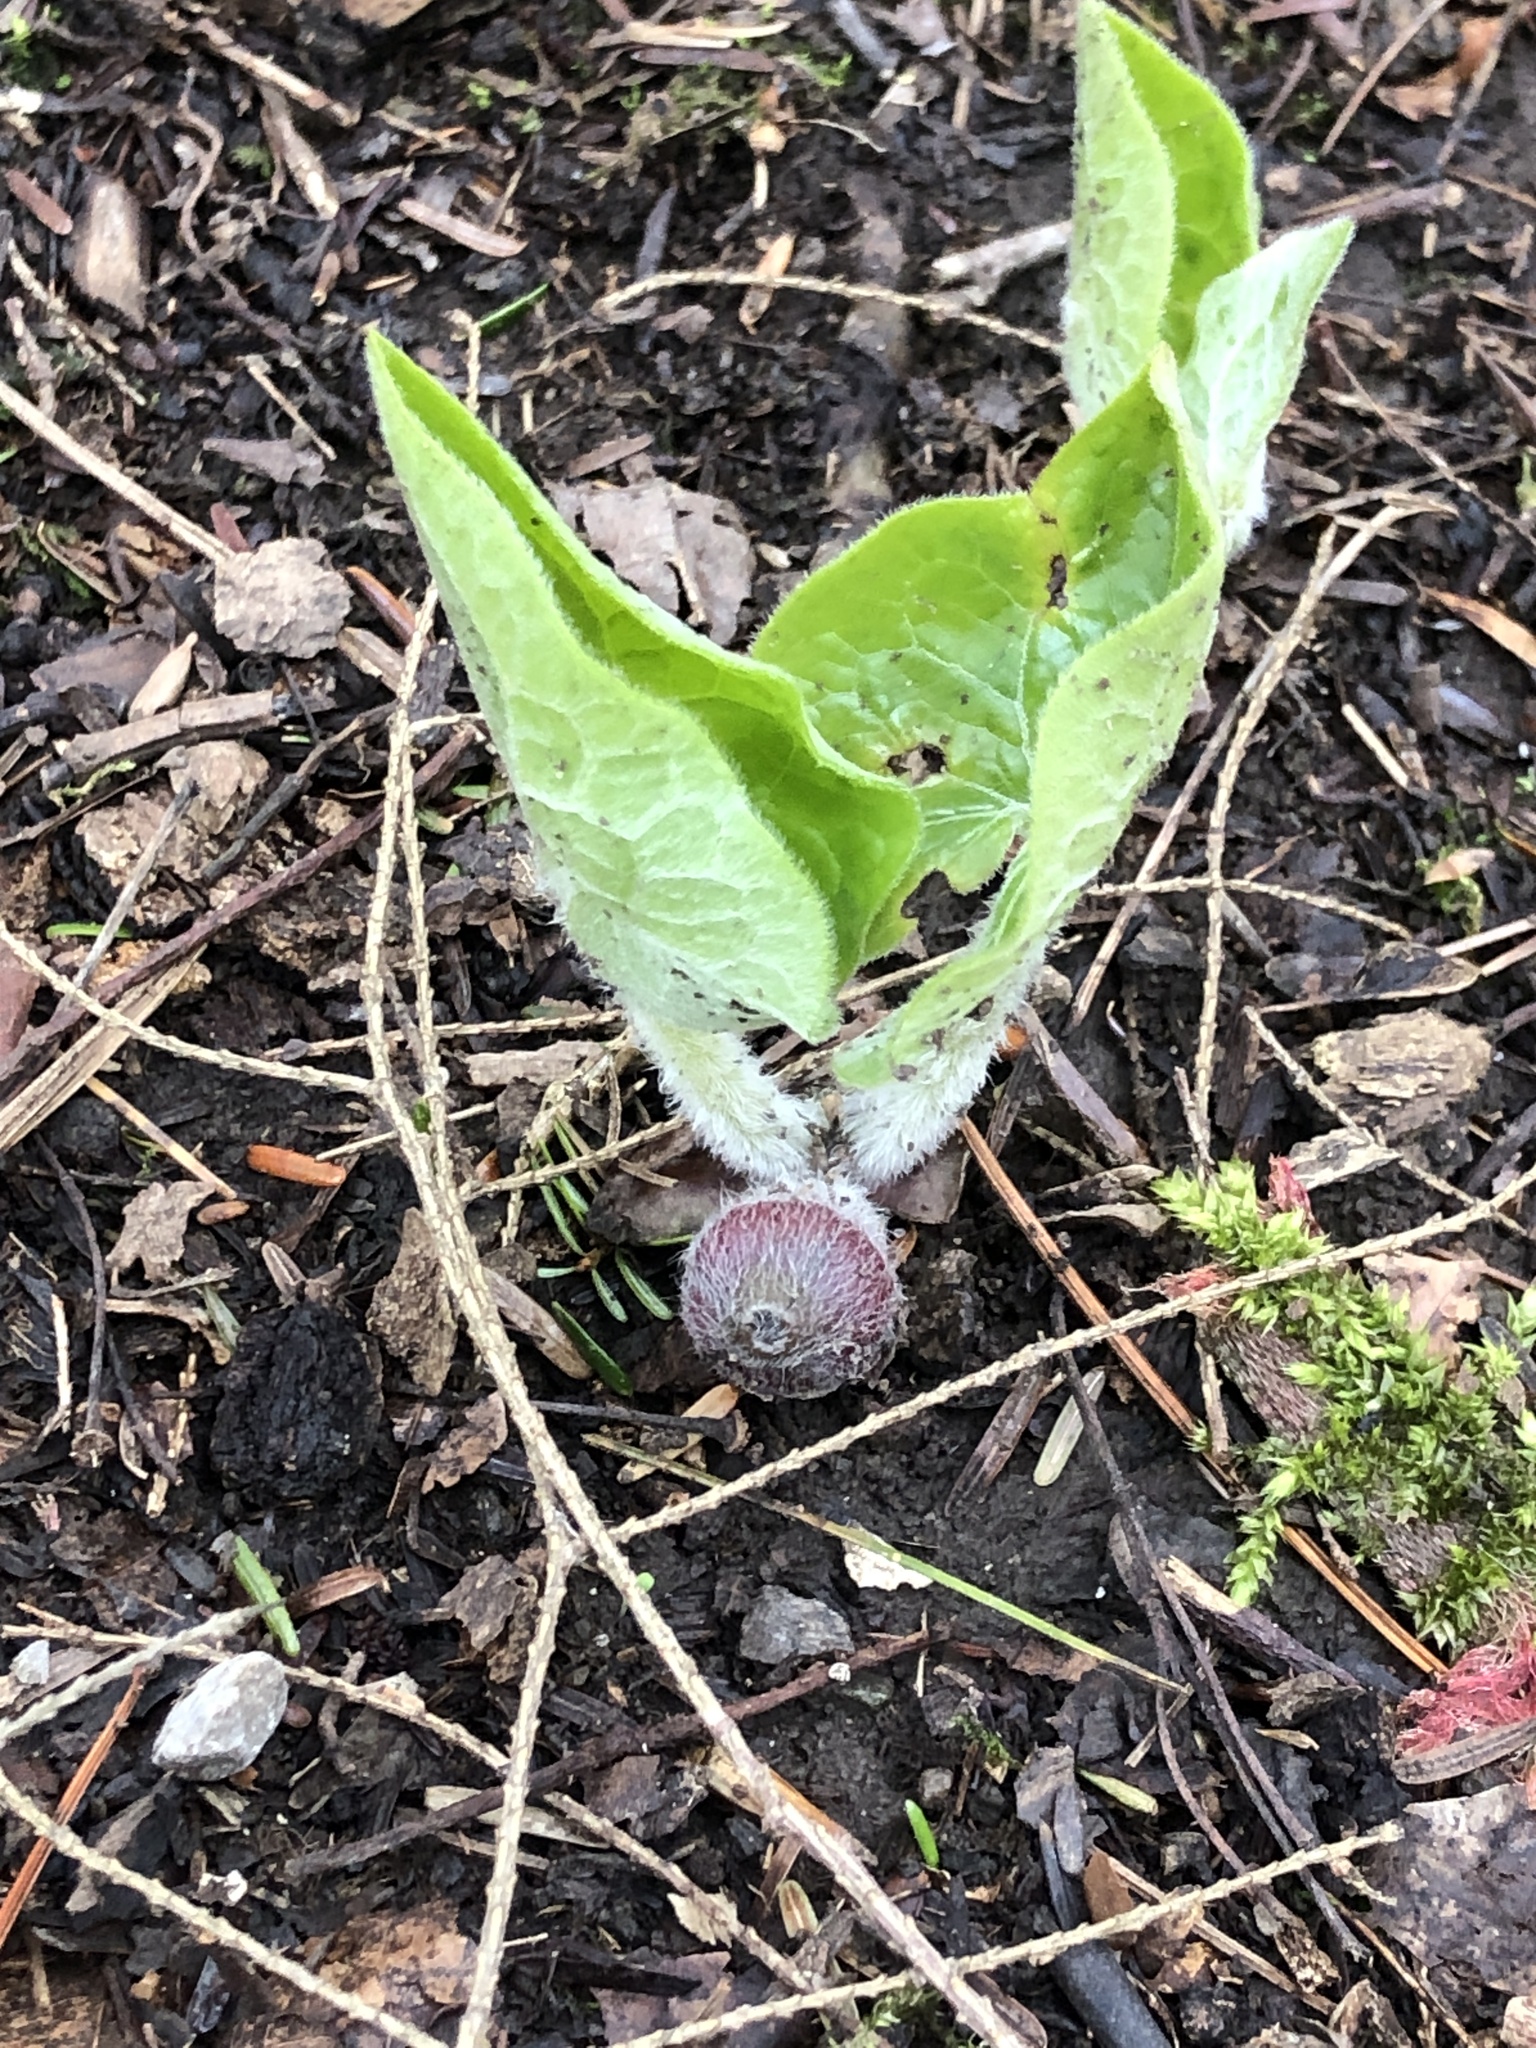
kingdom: Plantae
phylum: Tracheophyta
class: Magnoliopsida
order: Piperales
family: Aristolochiaceae
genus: Asarum
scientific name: Asarum canadense
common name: Wild ginger
